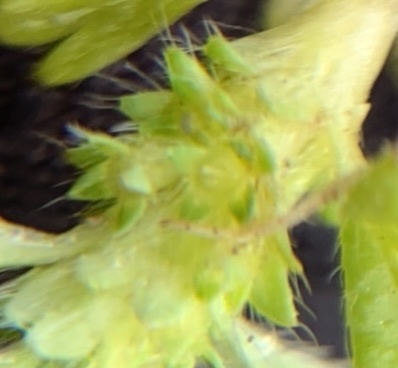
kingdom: Plantae
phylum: Tracheophyta
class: Magnoliopsida
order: Rosales
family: Rosaceae
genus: Aphanes
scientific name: Aphanes australis
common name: Slender parsley-piert
